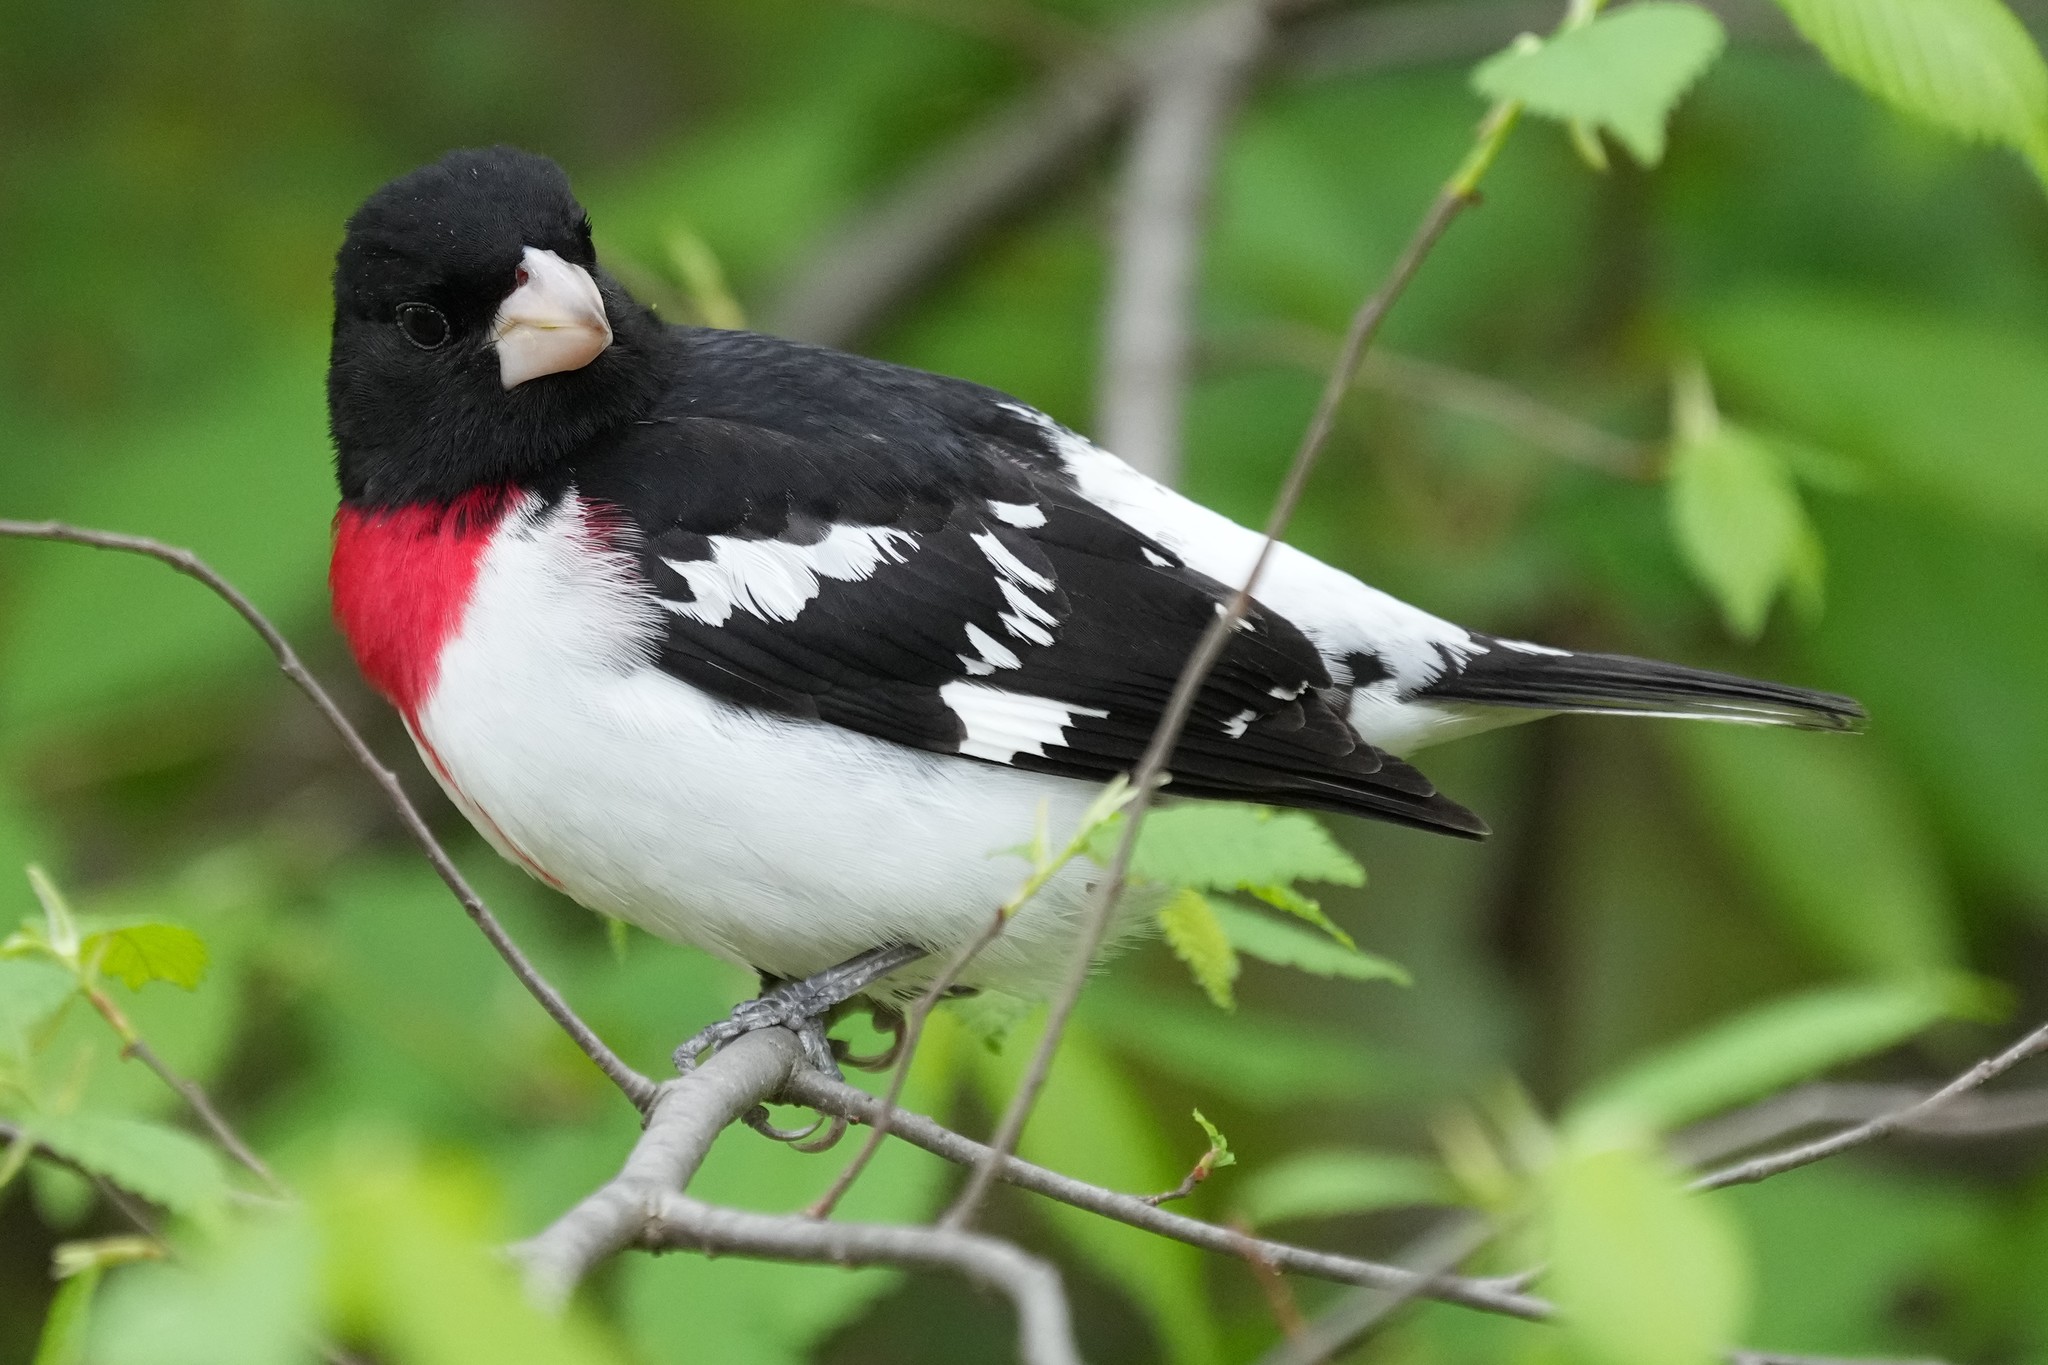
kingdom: Animalia
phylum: Chordata
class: Aves
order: Passeriformes
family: Cardinalidae
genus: Pheucticus
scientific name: Pheucticus ludovicianus
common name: Rose-breasted grosbeak
